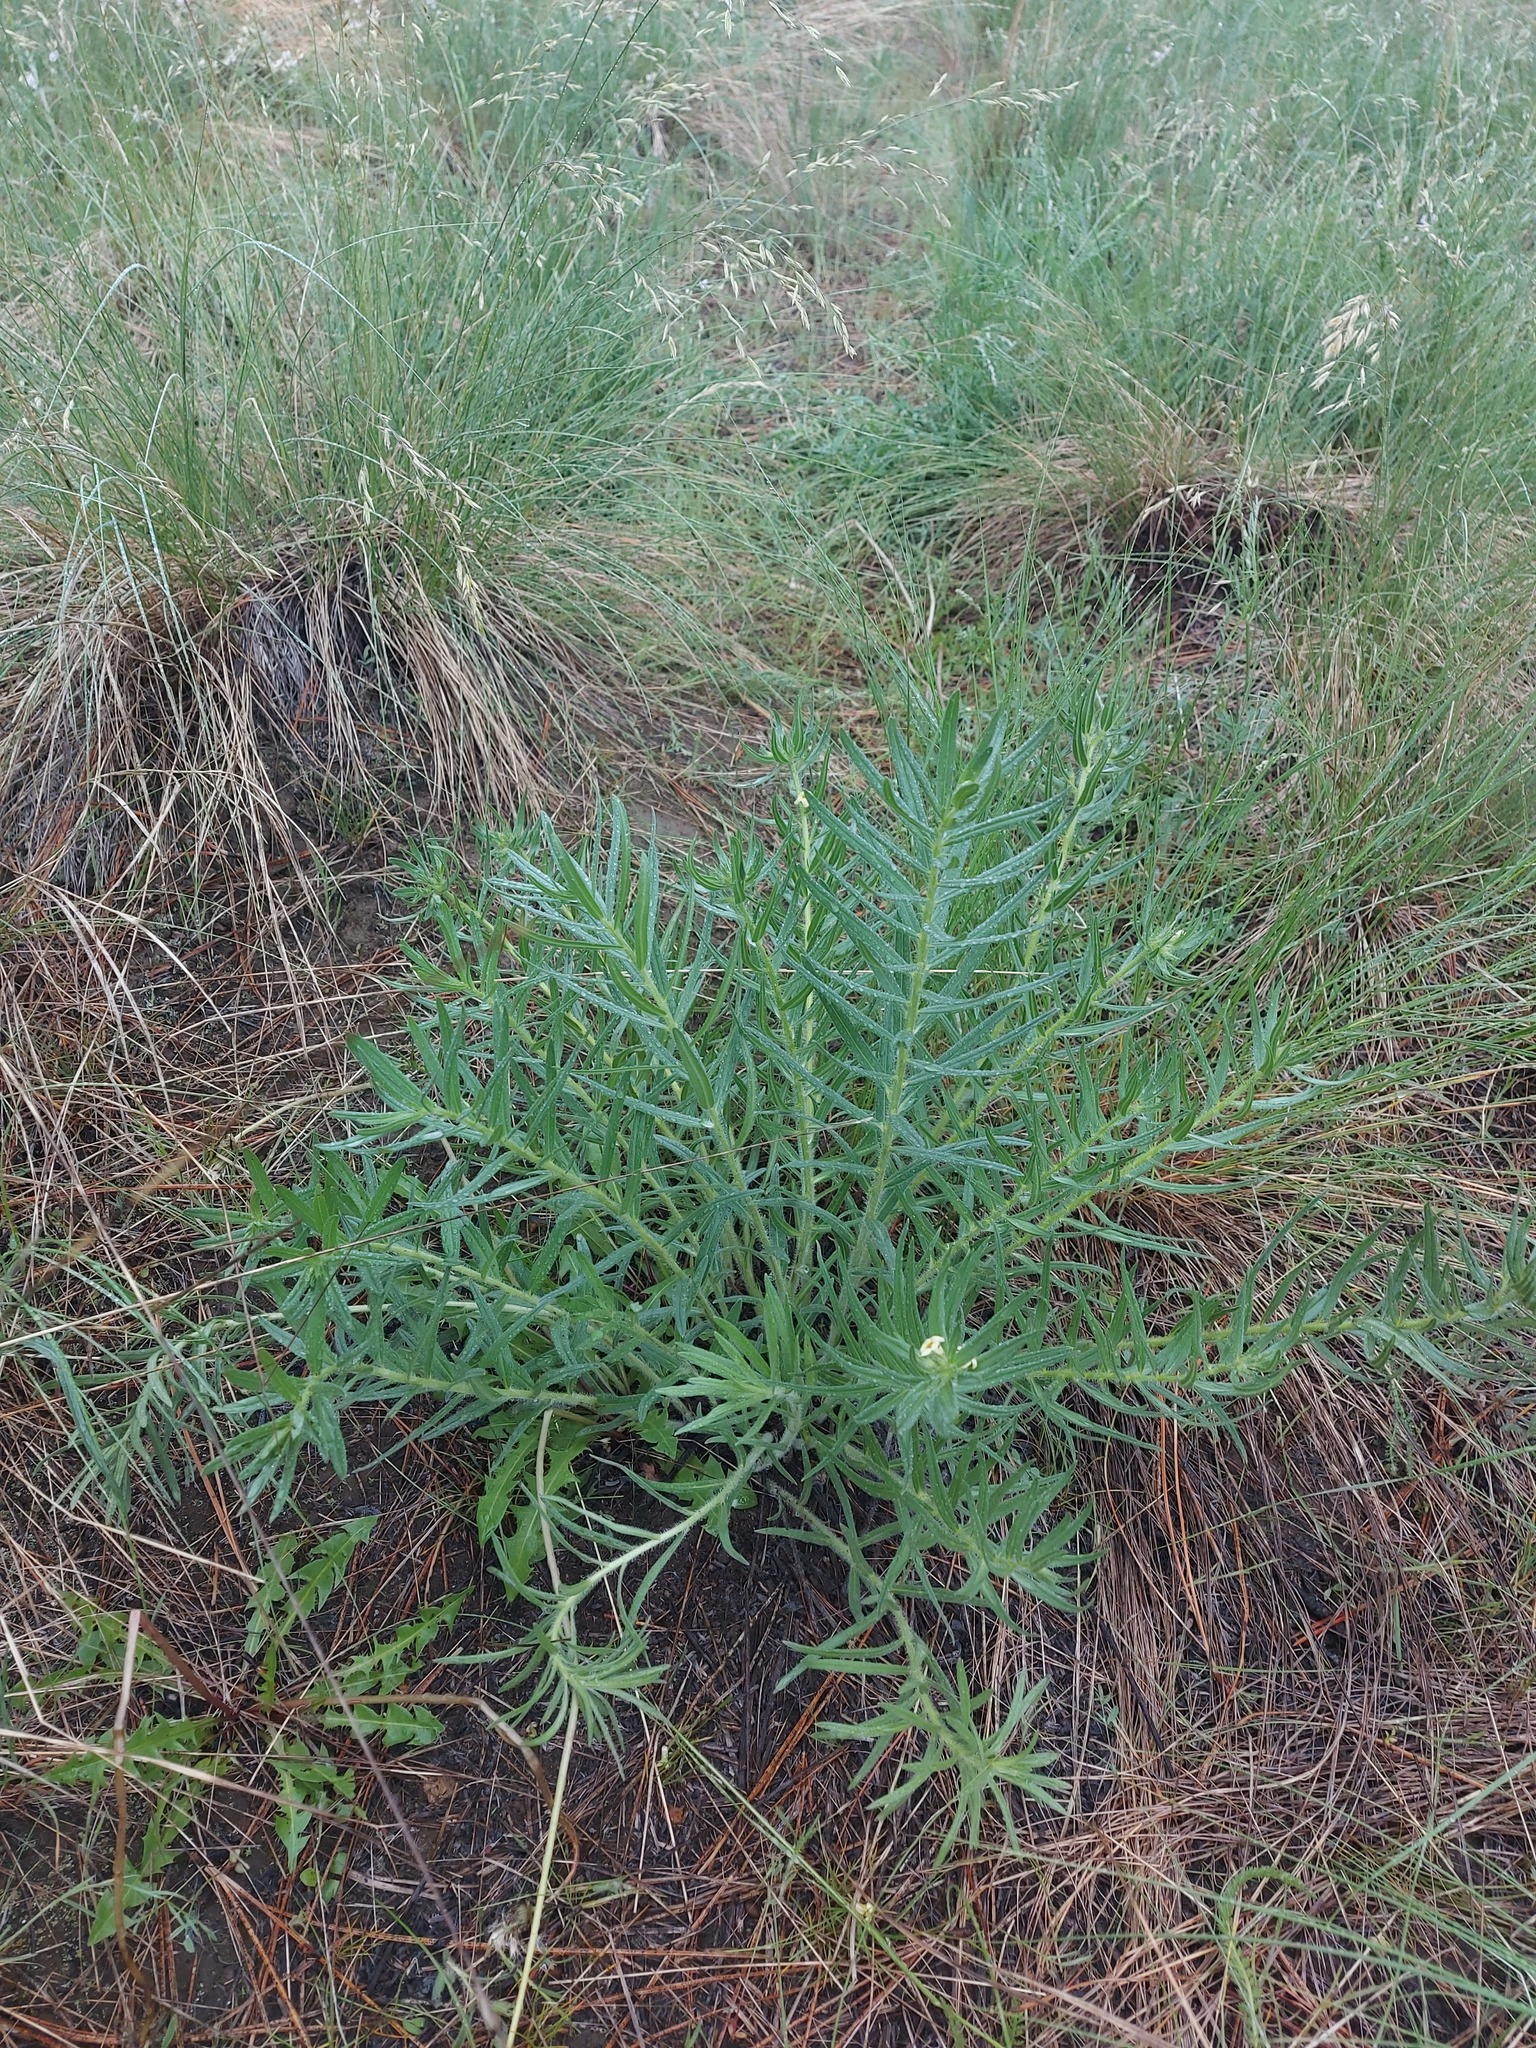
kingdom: Plantae
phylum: Tracheophyta
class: Magnoliopsida
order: Boraginales
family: Boraginaceae
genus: Lithospermum
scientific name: Lithospermum ruderale
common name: Western gromwell
